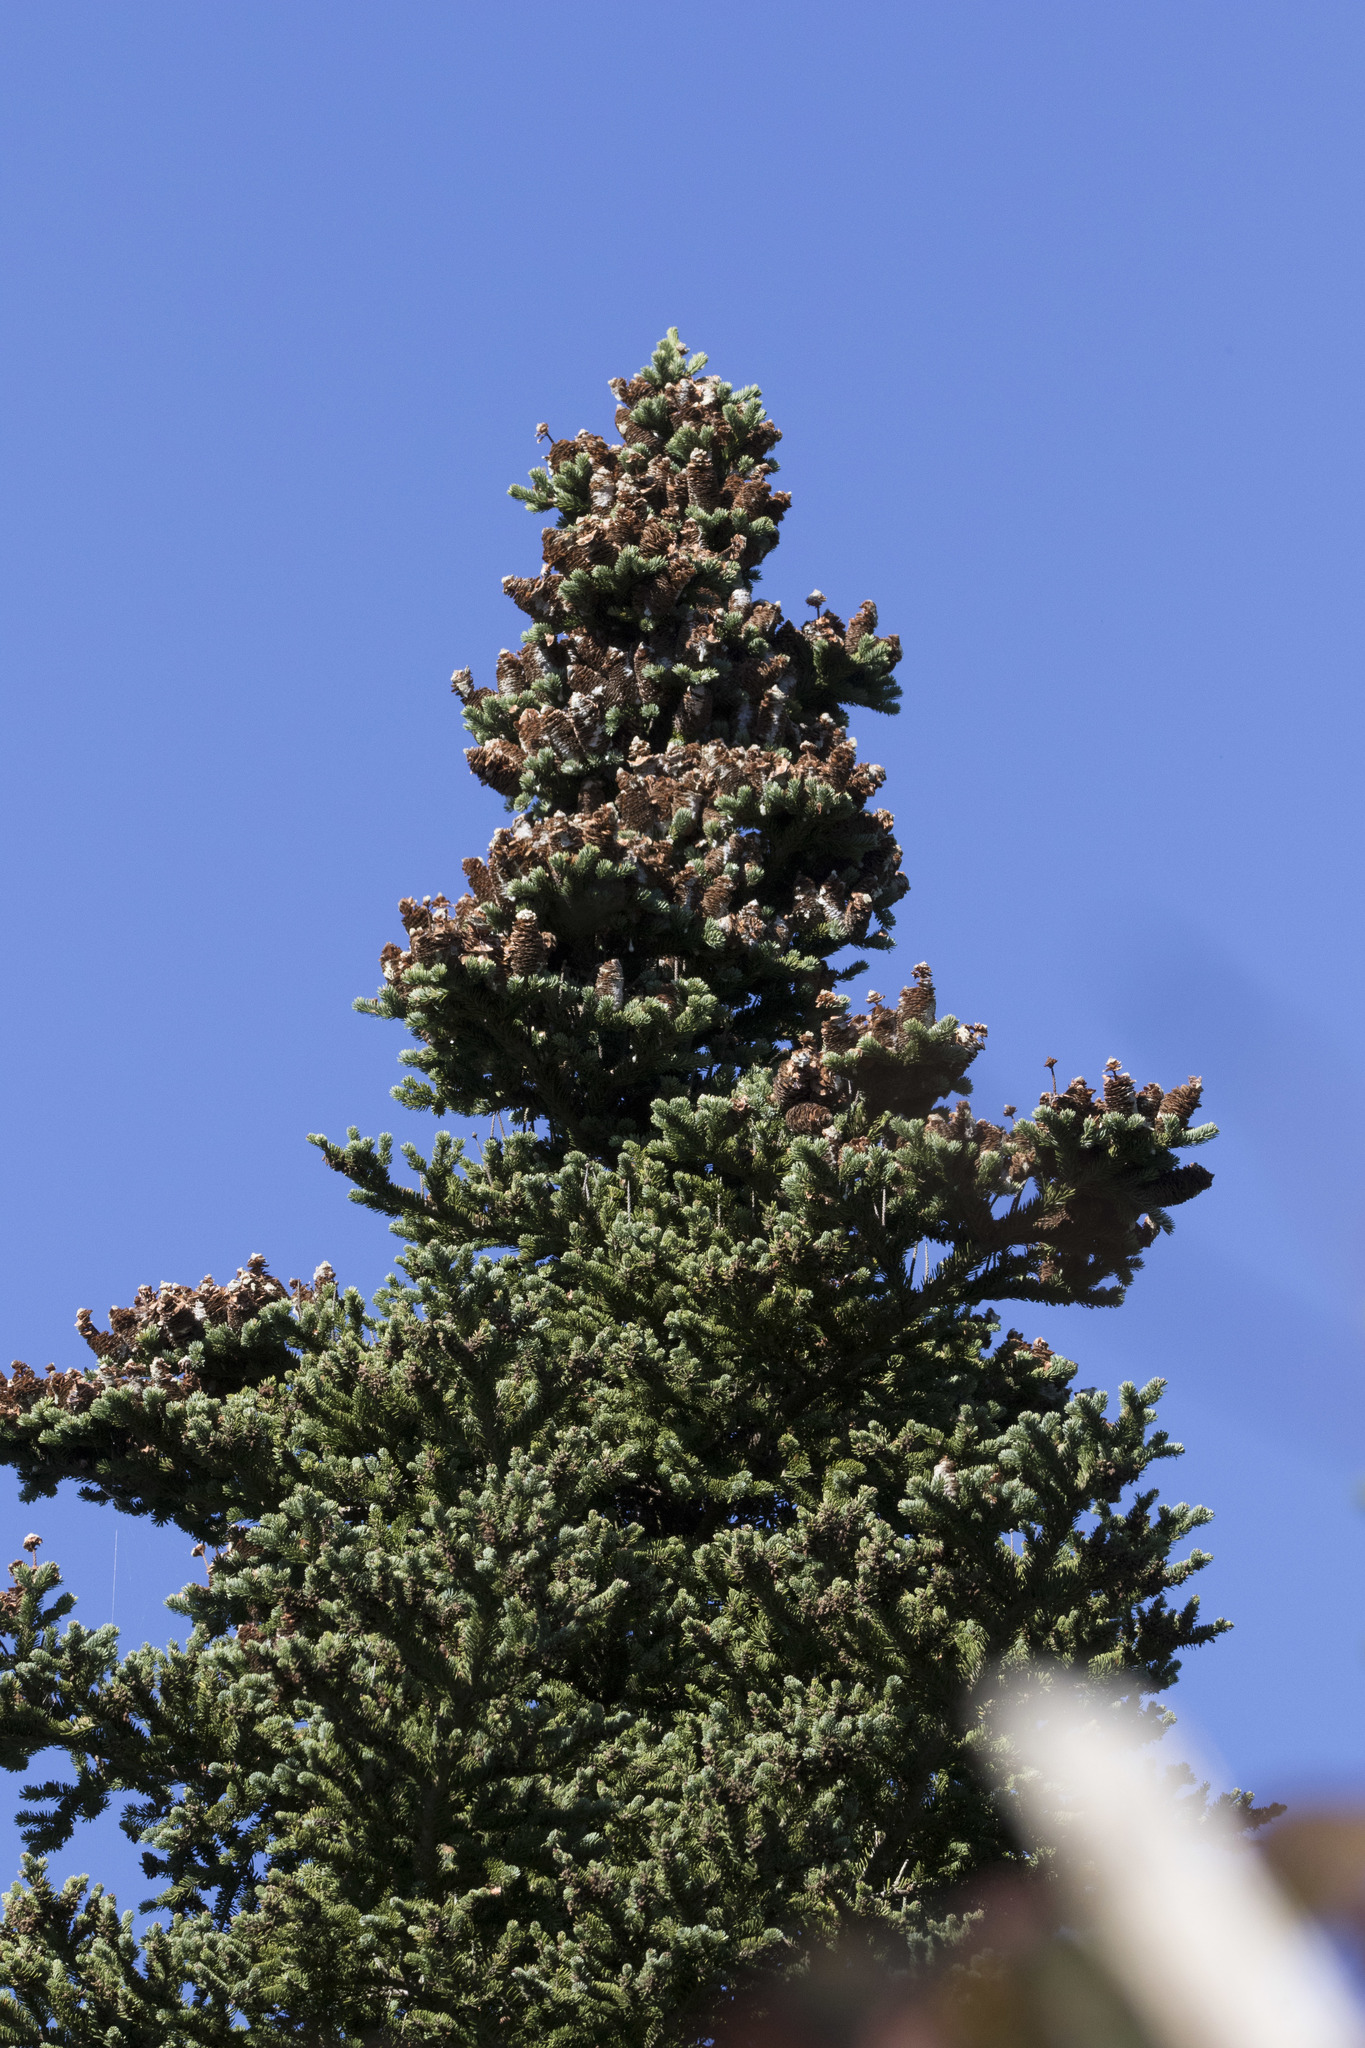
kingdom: Plantae
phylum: Tracheophyta
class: Pinopsida
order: Pinales
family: Pinaceae
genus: Abies
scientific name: Abies balsamea
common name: Balsam fir
